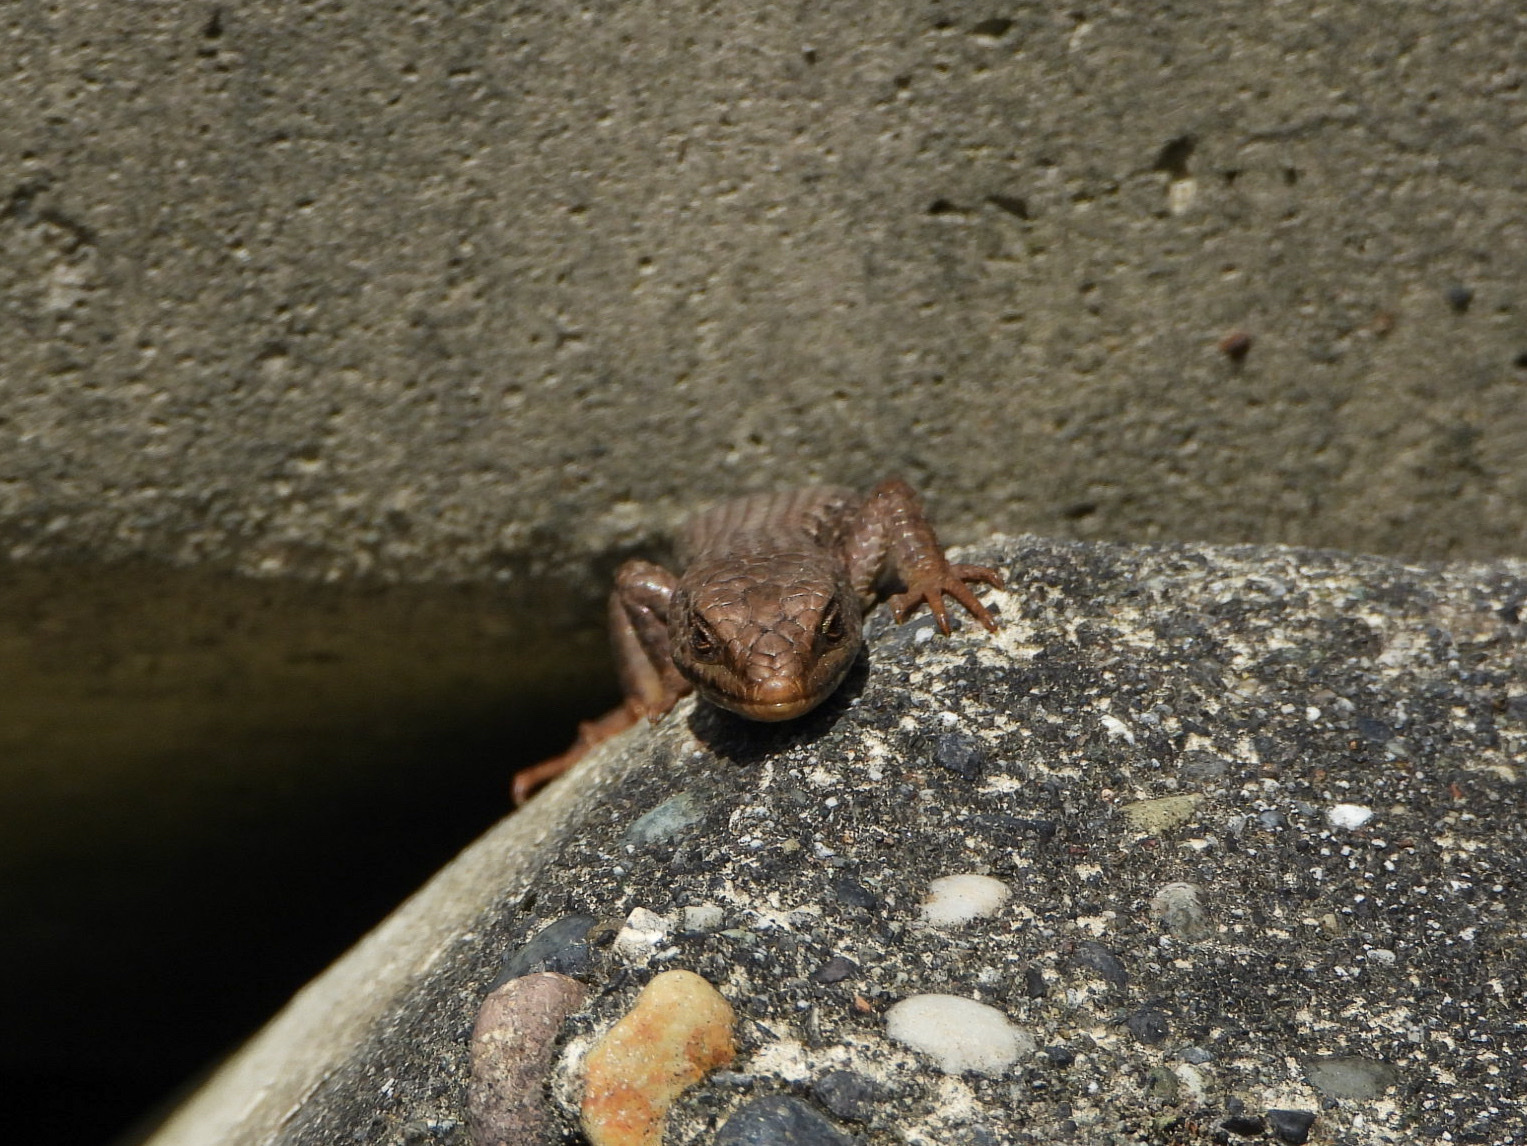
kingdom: Animalia
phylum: Chordata
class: Squamata
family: Anguidae
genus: Elgaria
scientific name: Elgaria coerulea
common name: Northern alligator lizard
